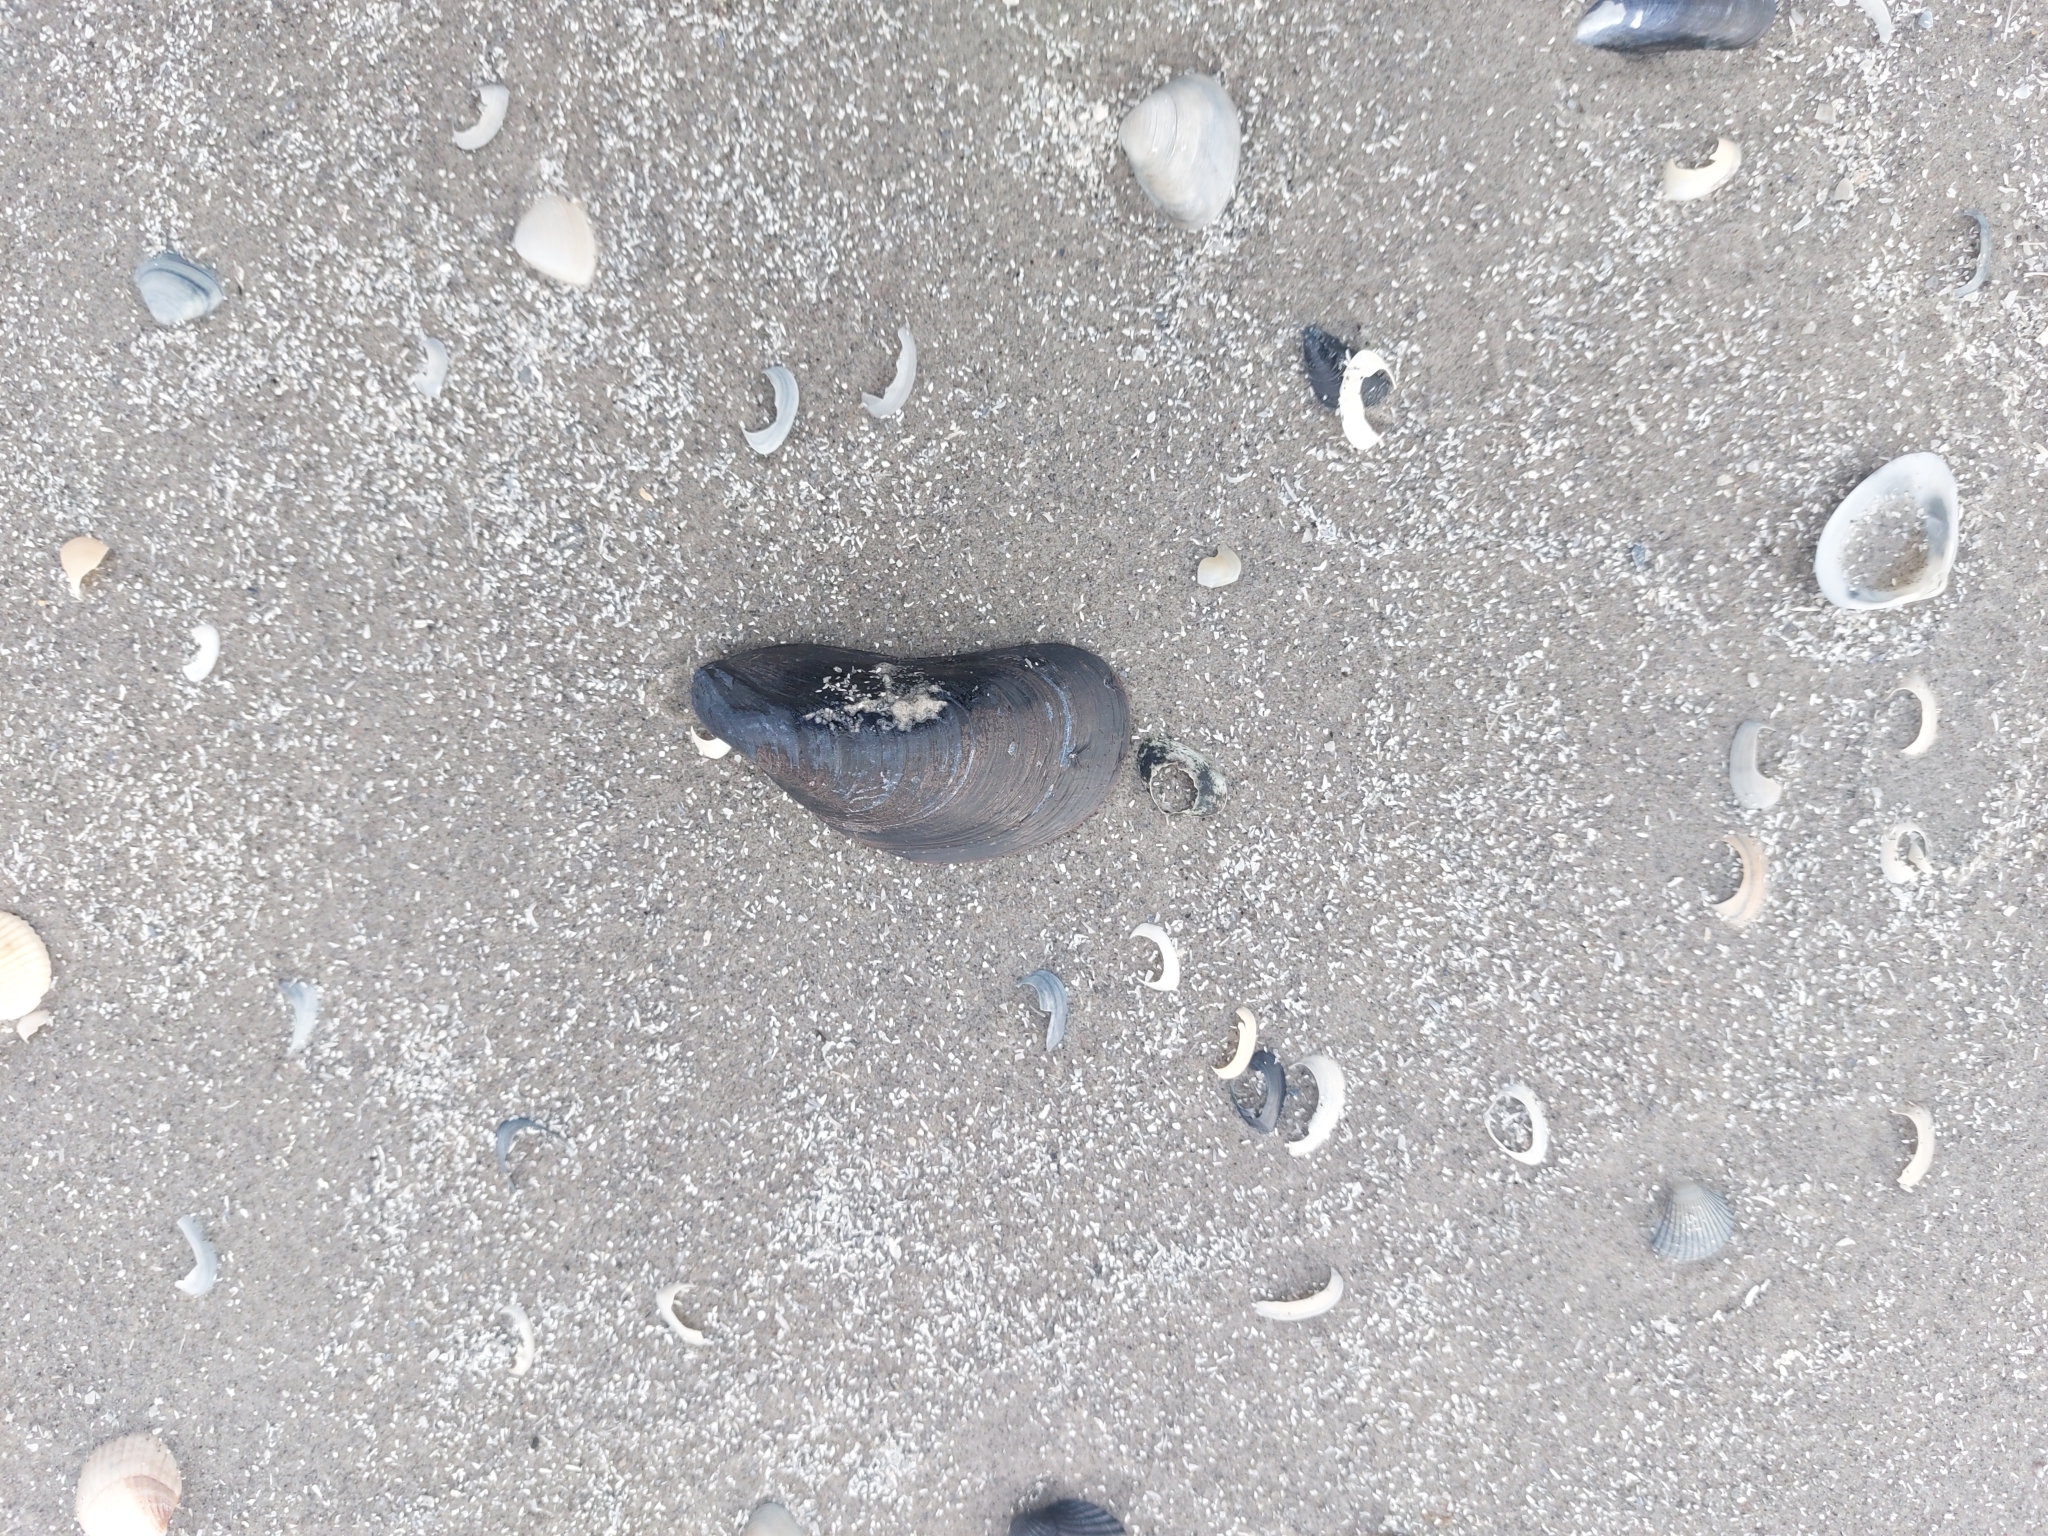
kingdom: Animalia
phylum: Mollusca
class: Bivalvia
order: Mytilida
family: Mytilidae
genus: Mytilus
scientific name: Mytilus edulis
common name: Blue mussel
